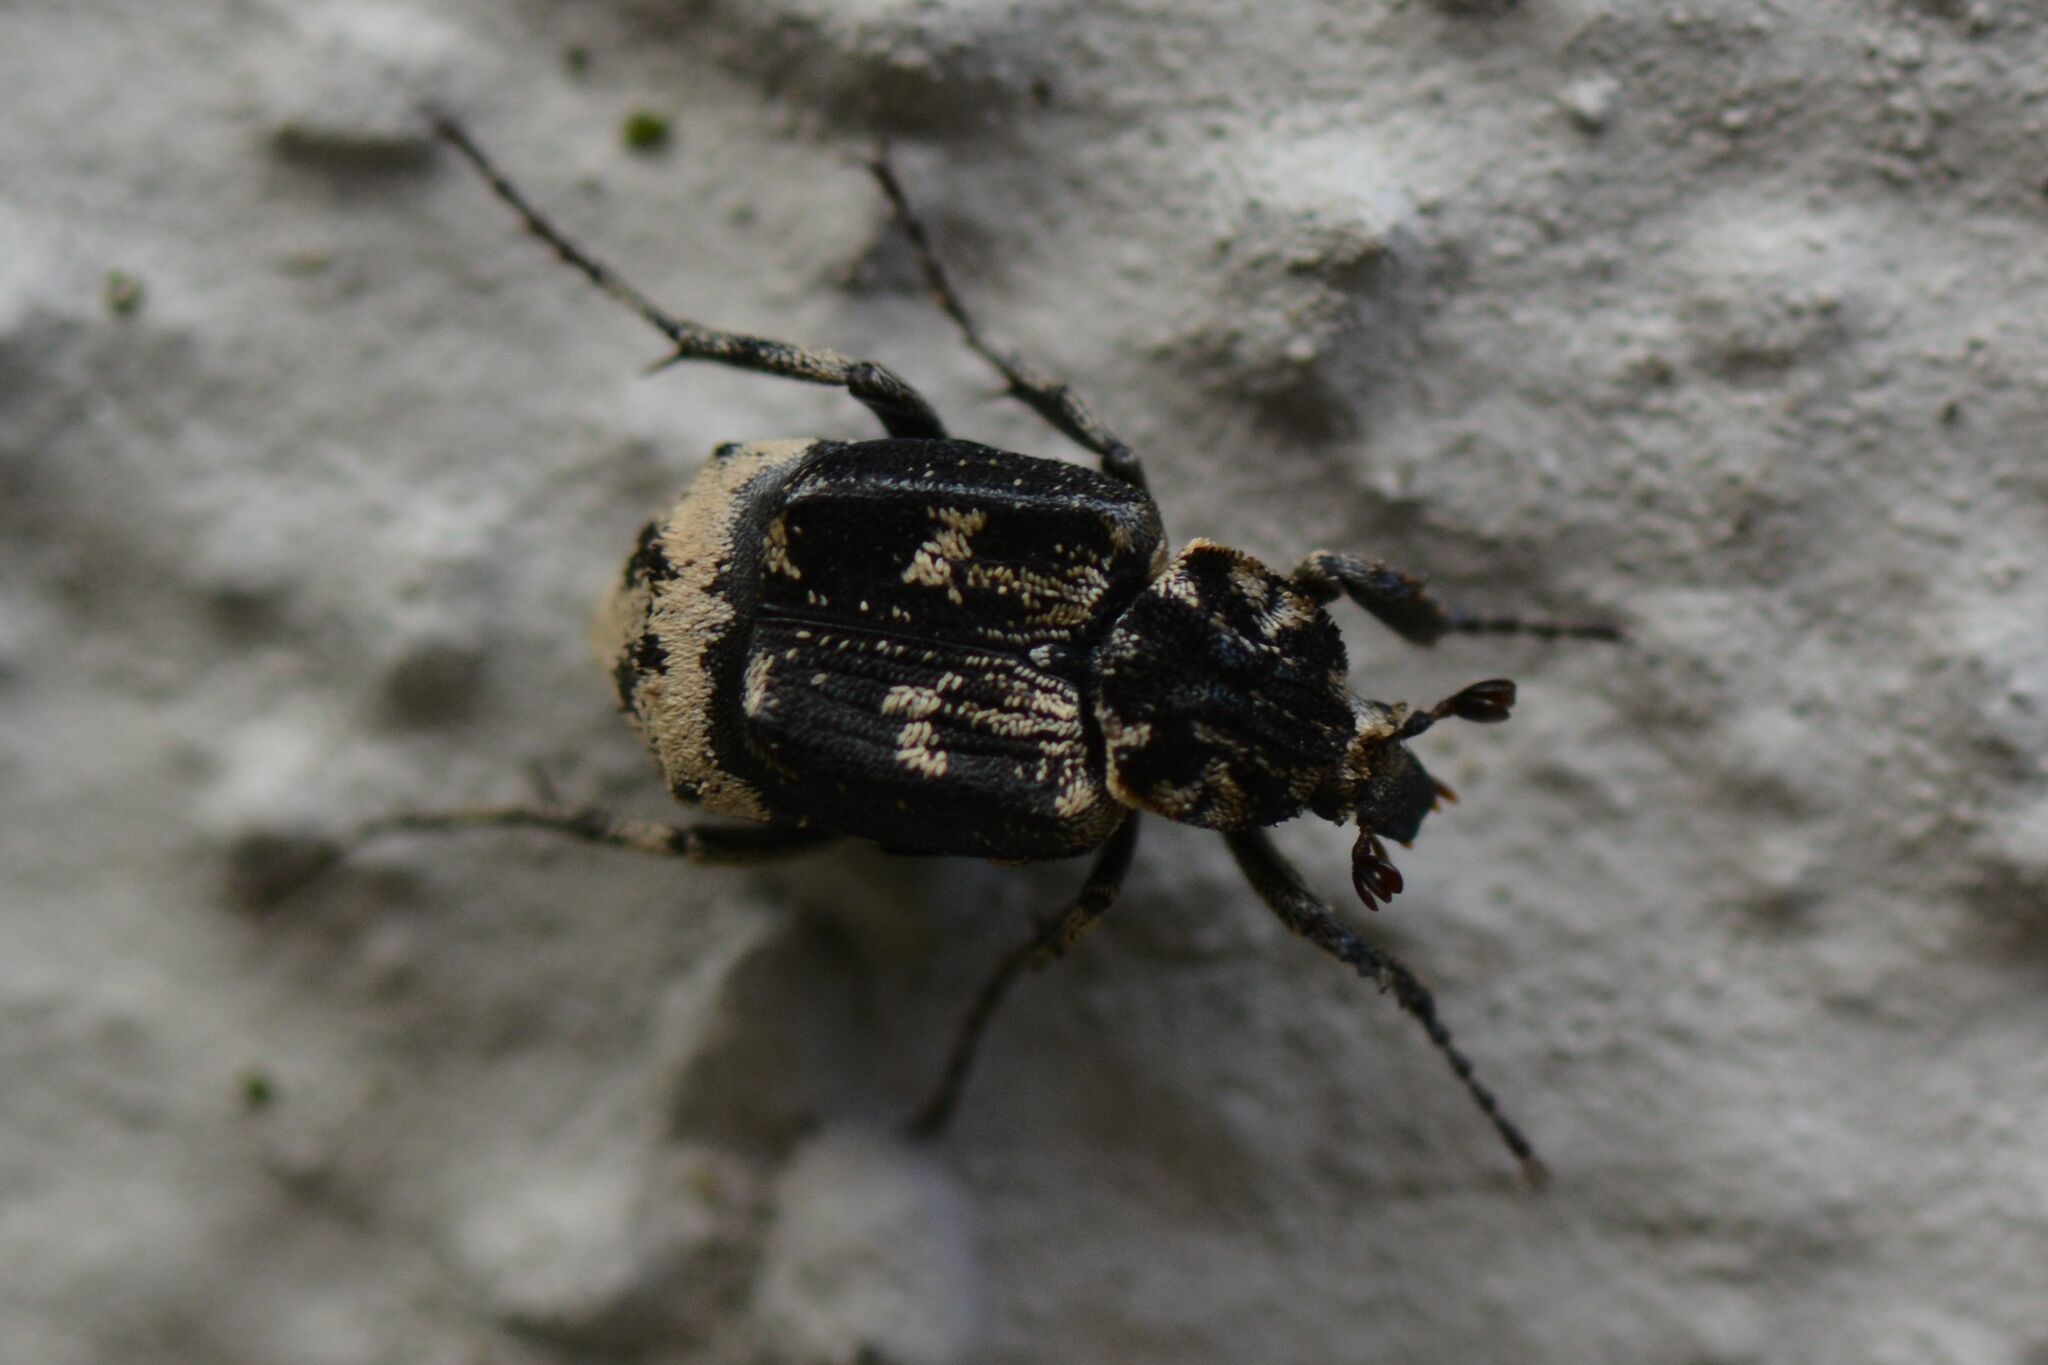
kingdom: Animalia
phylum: Arthropoda
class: Insecta
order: Coleoptera
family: Scarabaeidae
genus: Valgus
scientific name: Valgus hemipterus
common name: Bug flower chafer
